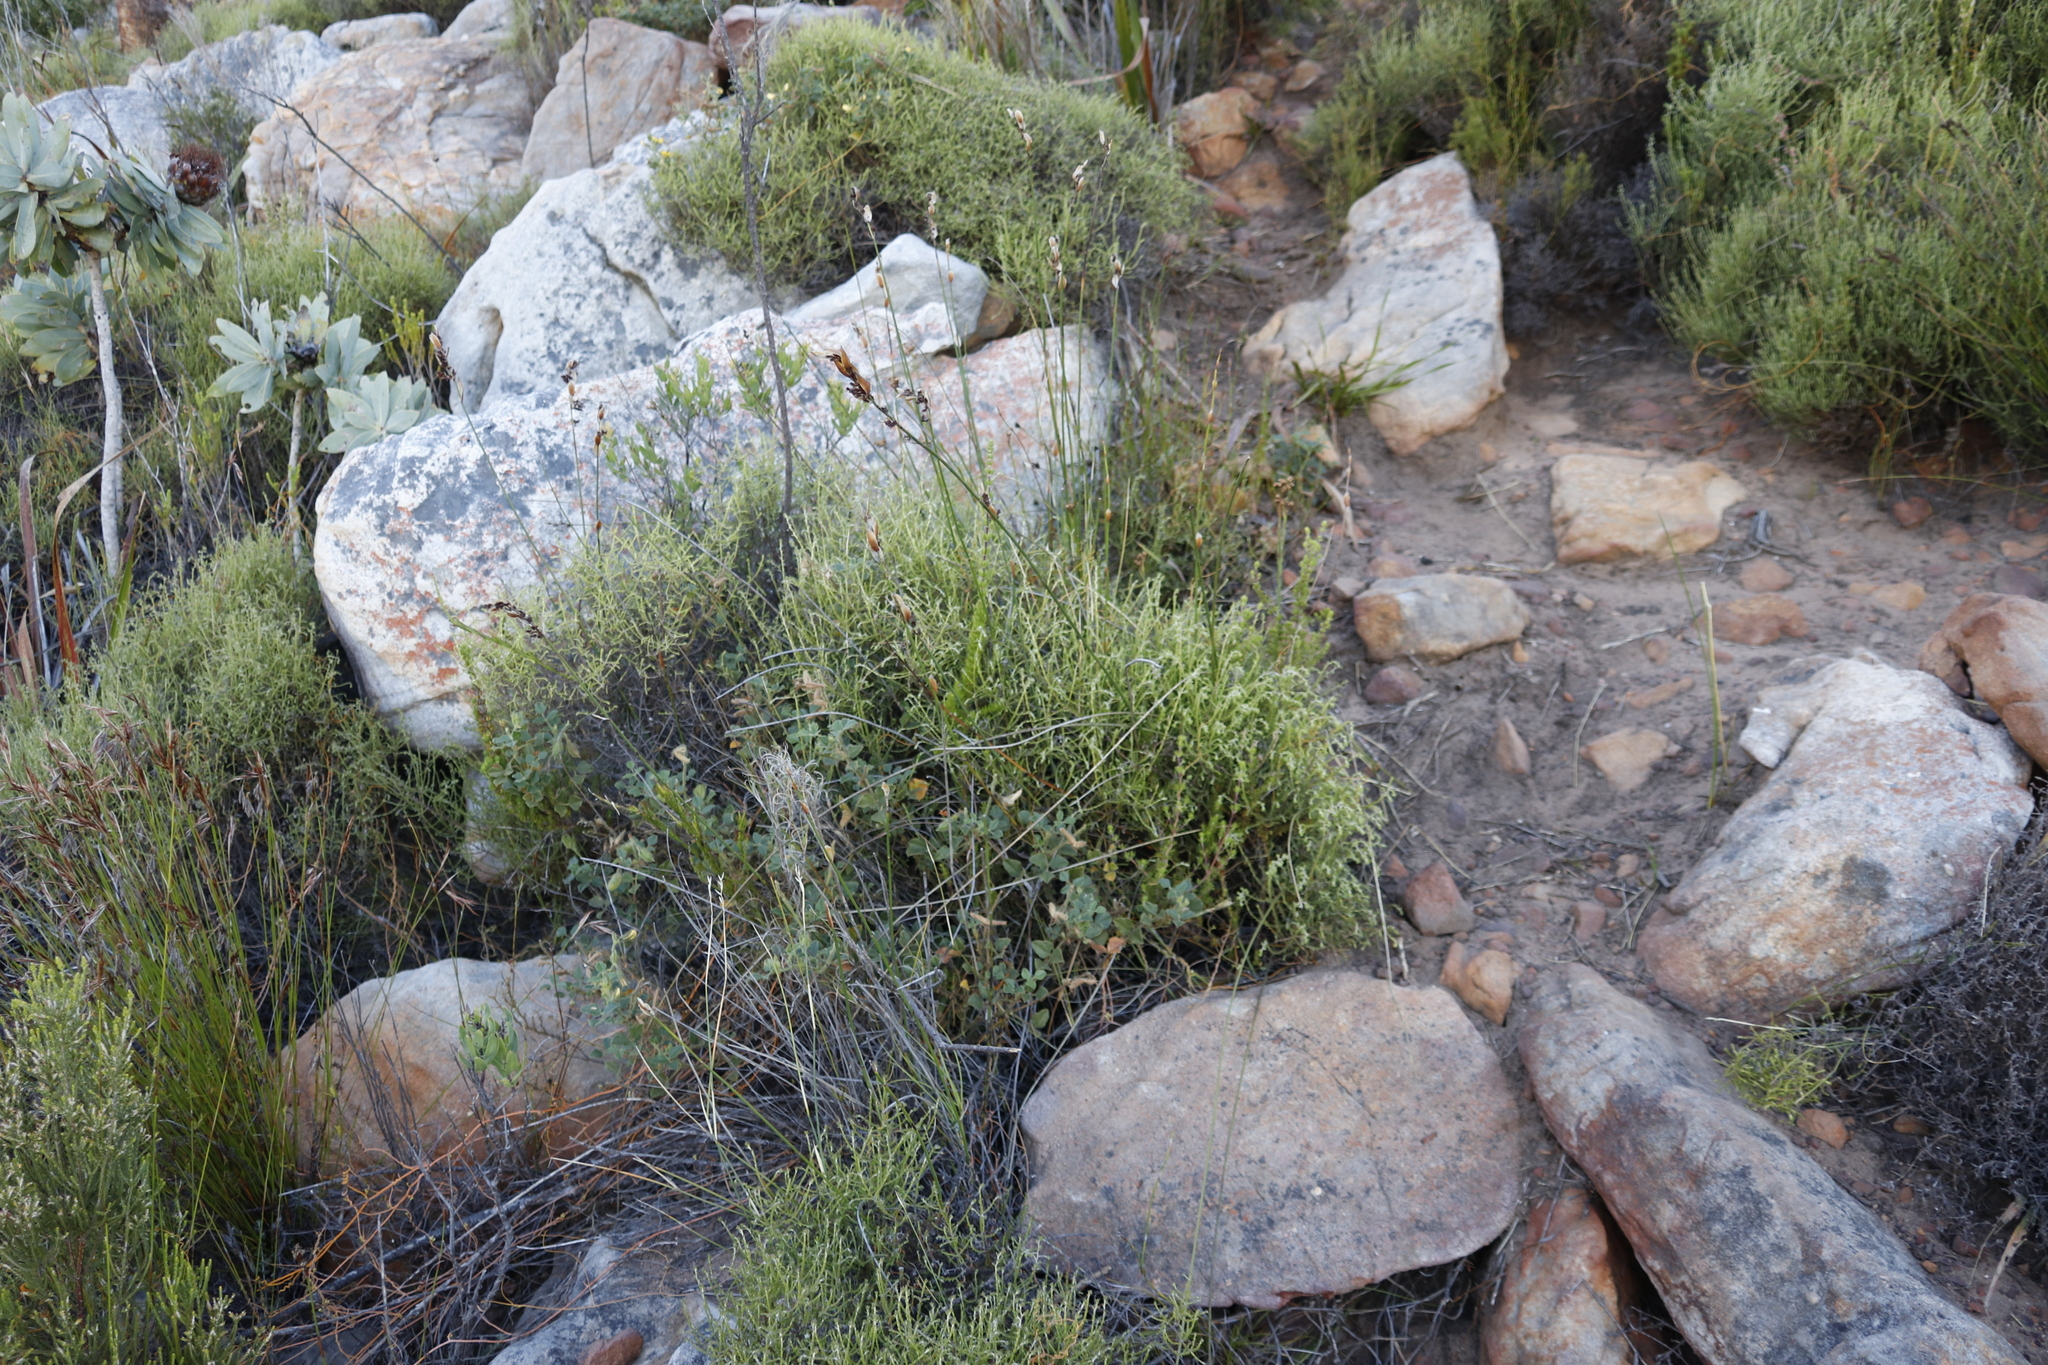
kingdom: Plantae
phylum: Tracheophyta
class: Magnoliopsida
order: Fabales
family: Fabaceae
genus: Bolusafra
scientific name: Bolusafra bituminosa
